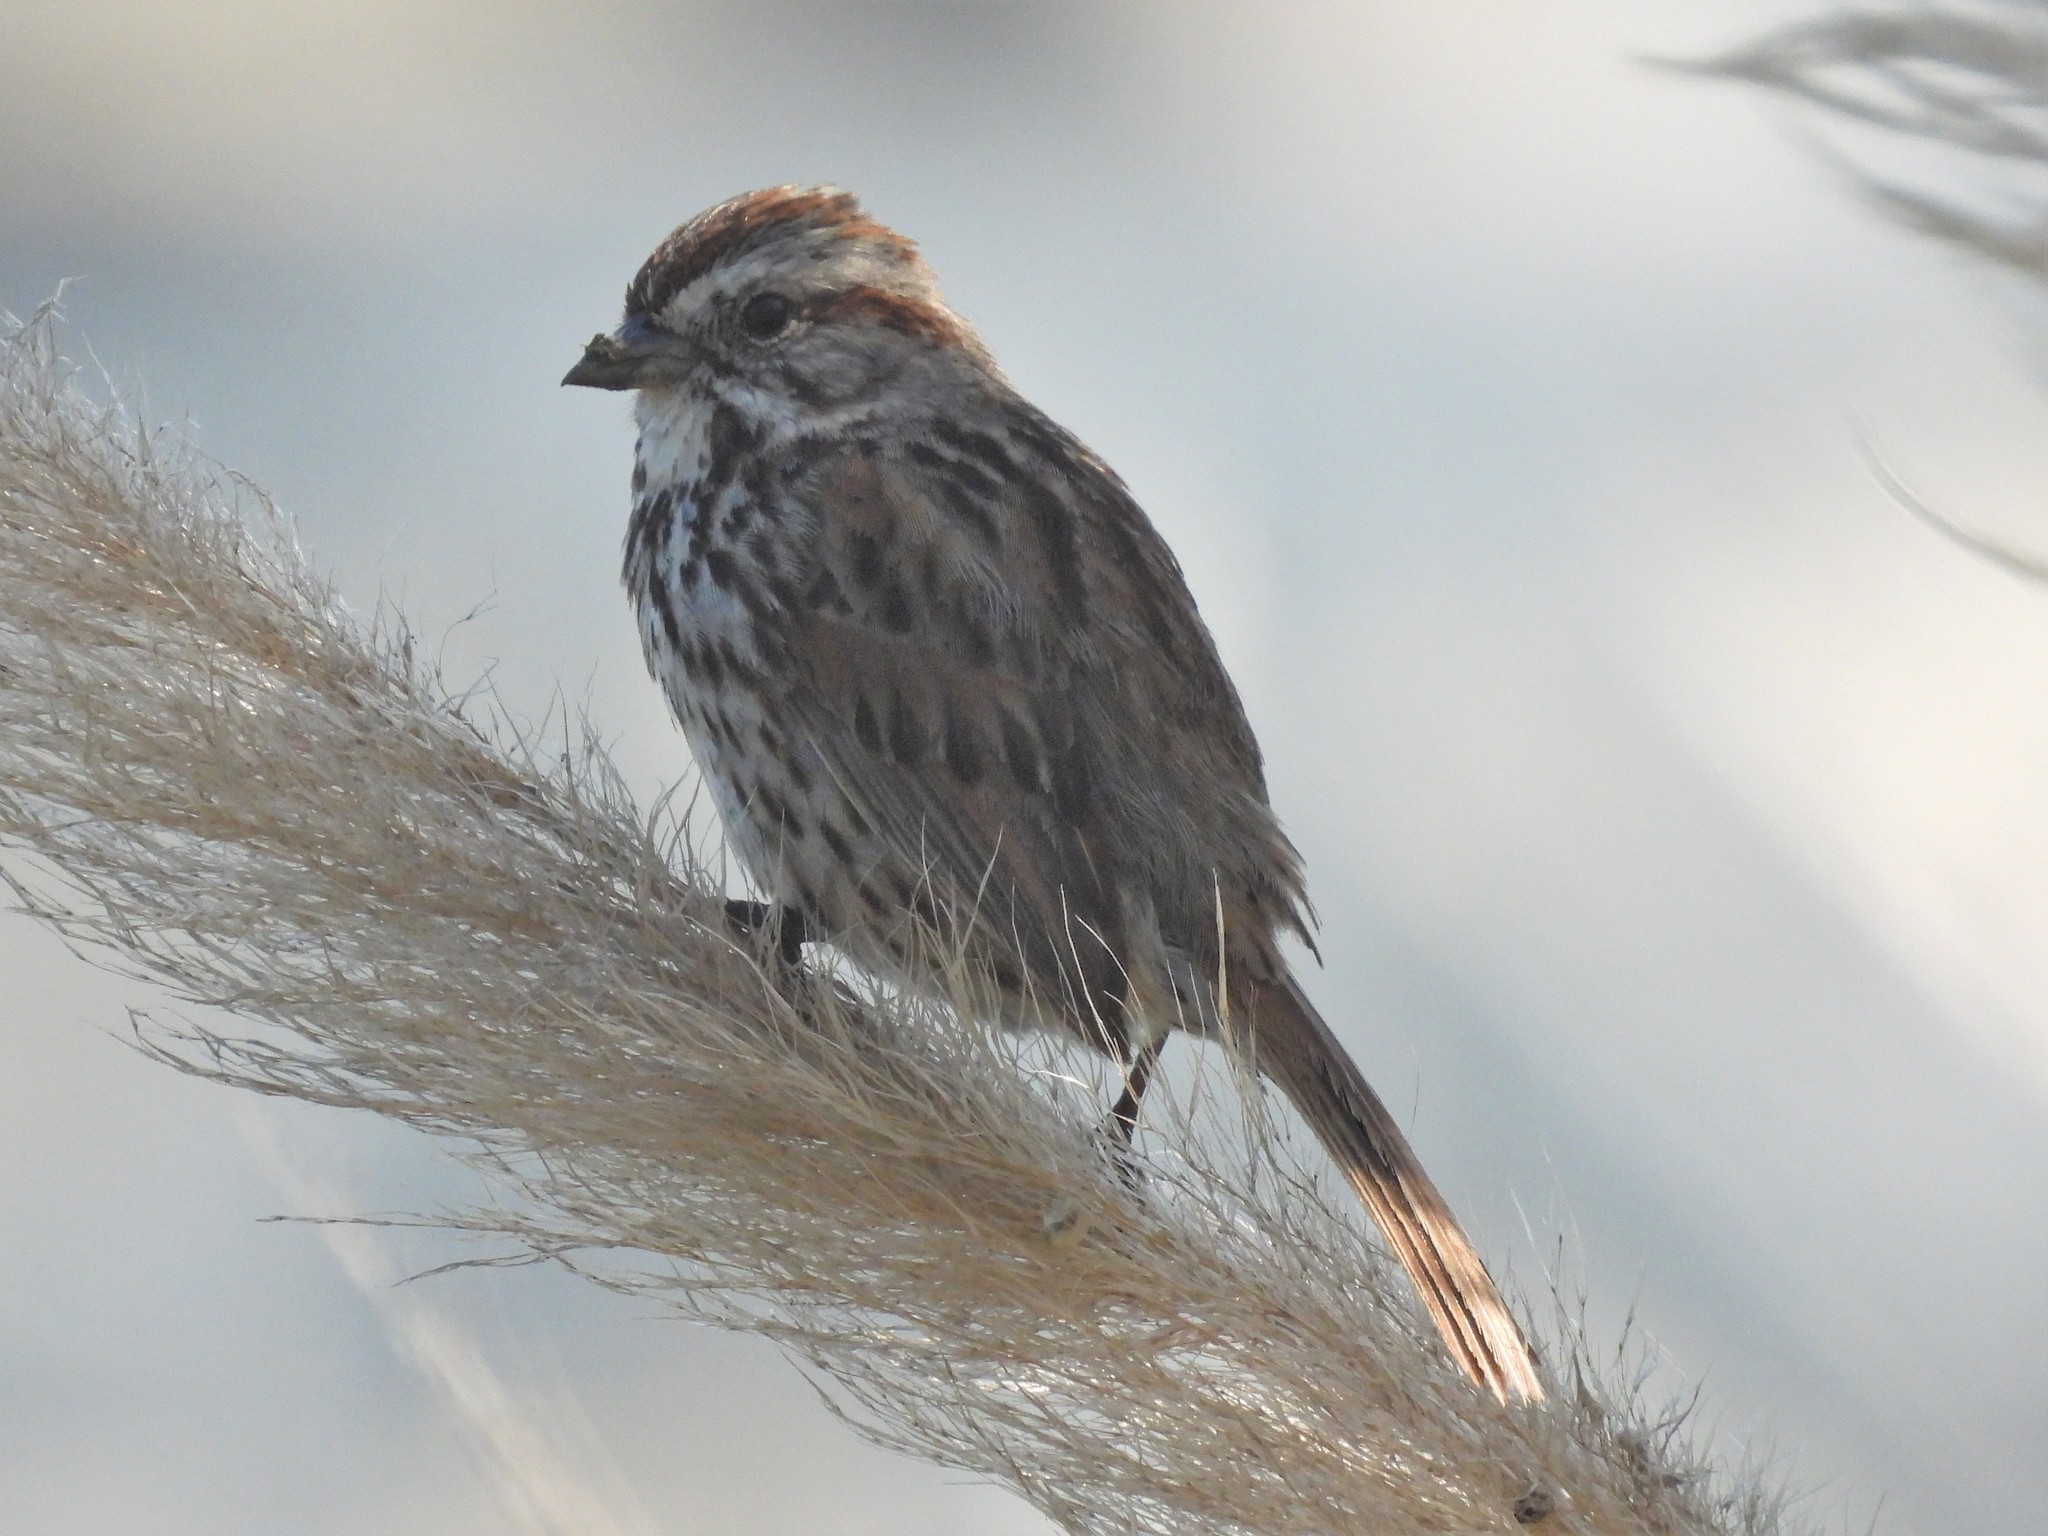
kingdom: Animalia
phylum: Chordata
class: Aves
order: Passeriformes
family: Passerellidae
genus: Melospiza
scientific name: Melospiza melodia
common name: Song sparrow
